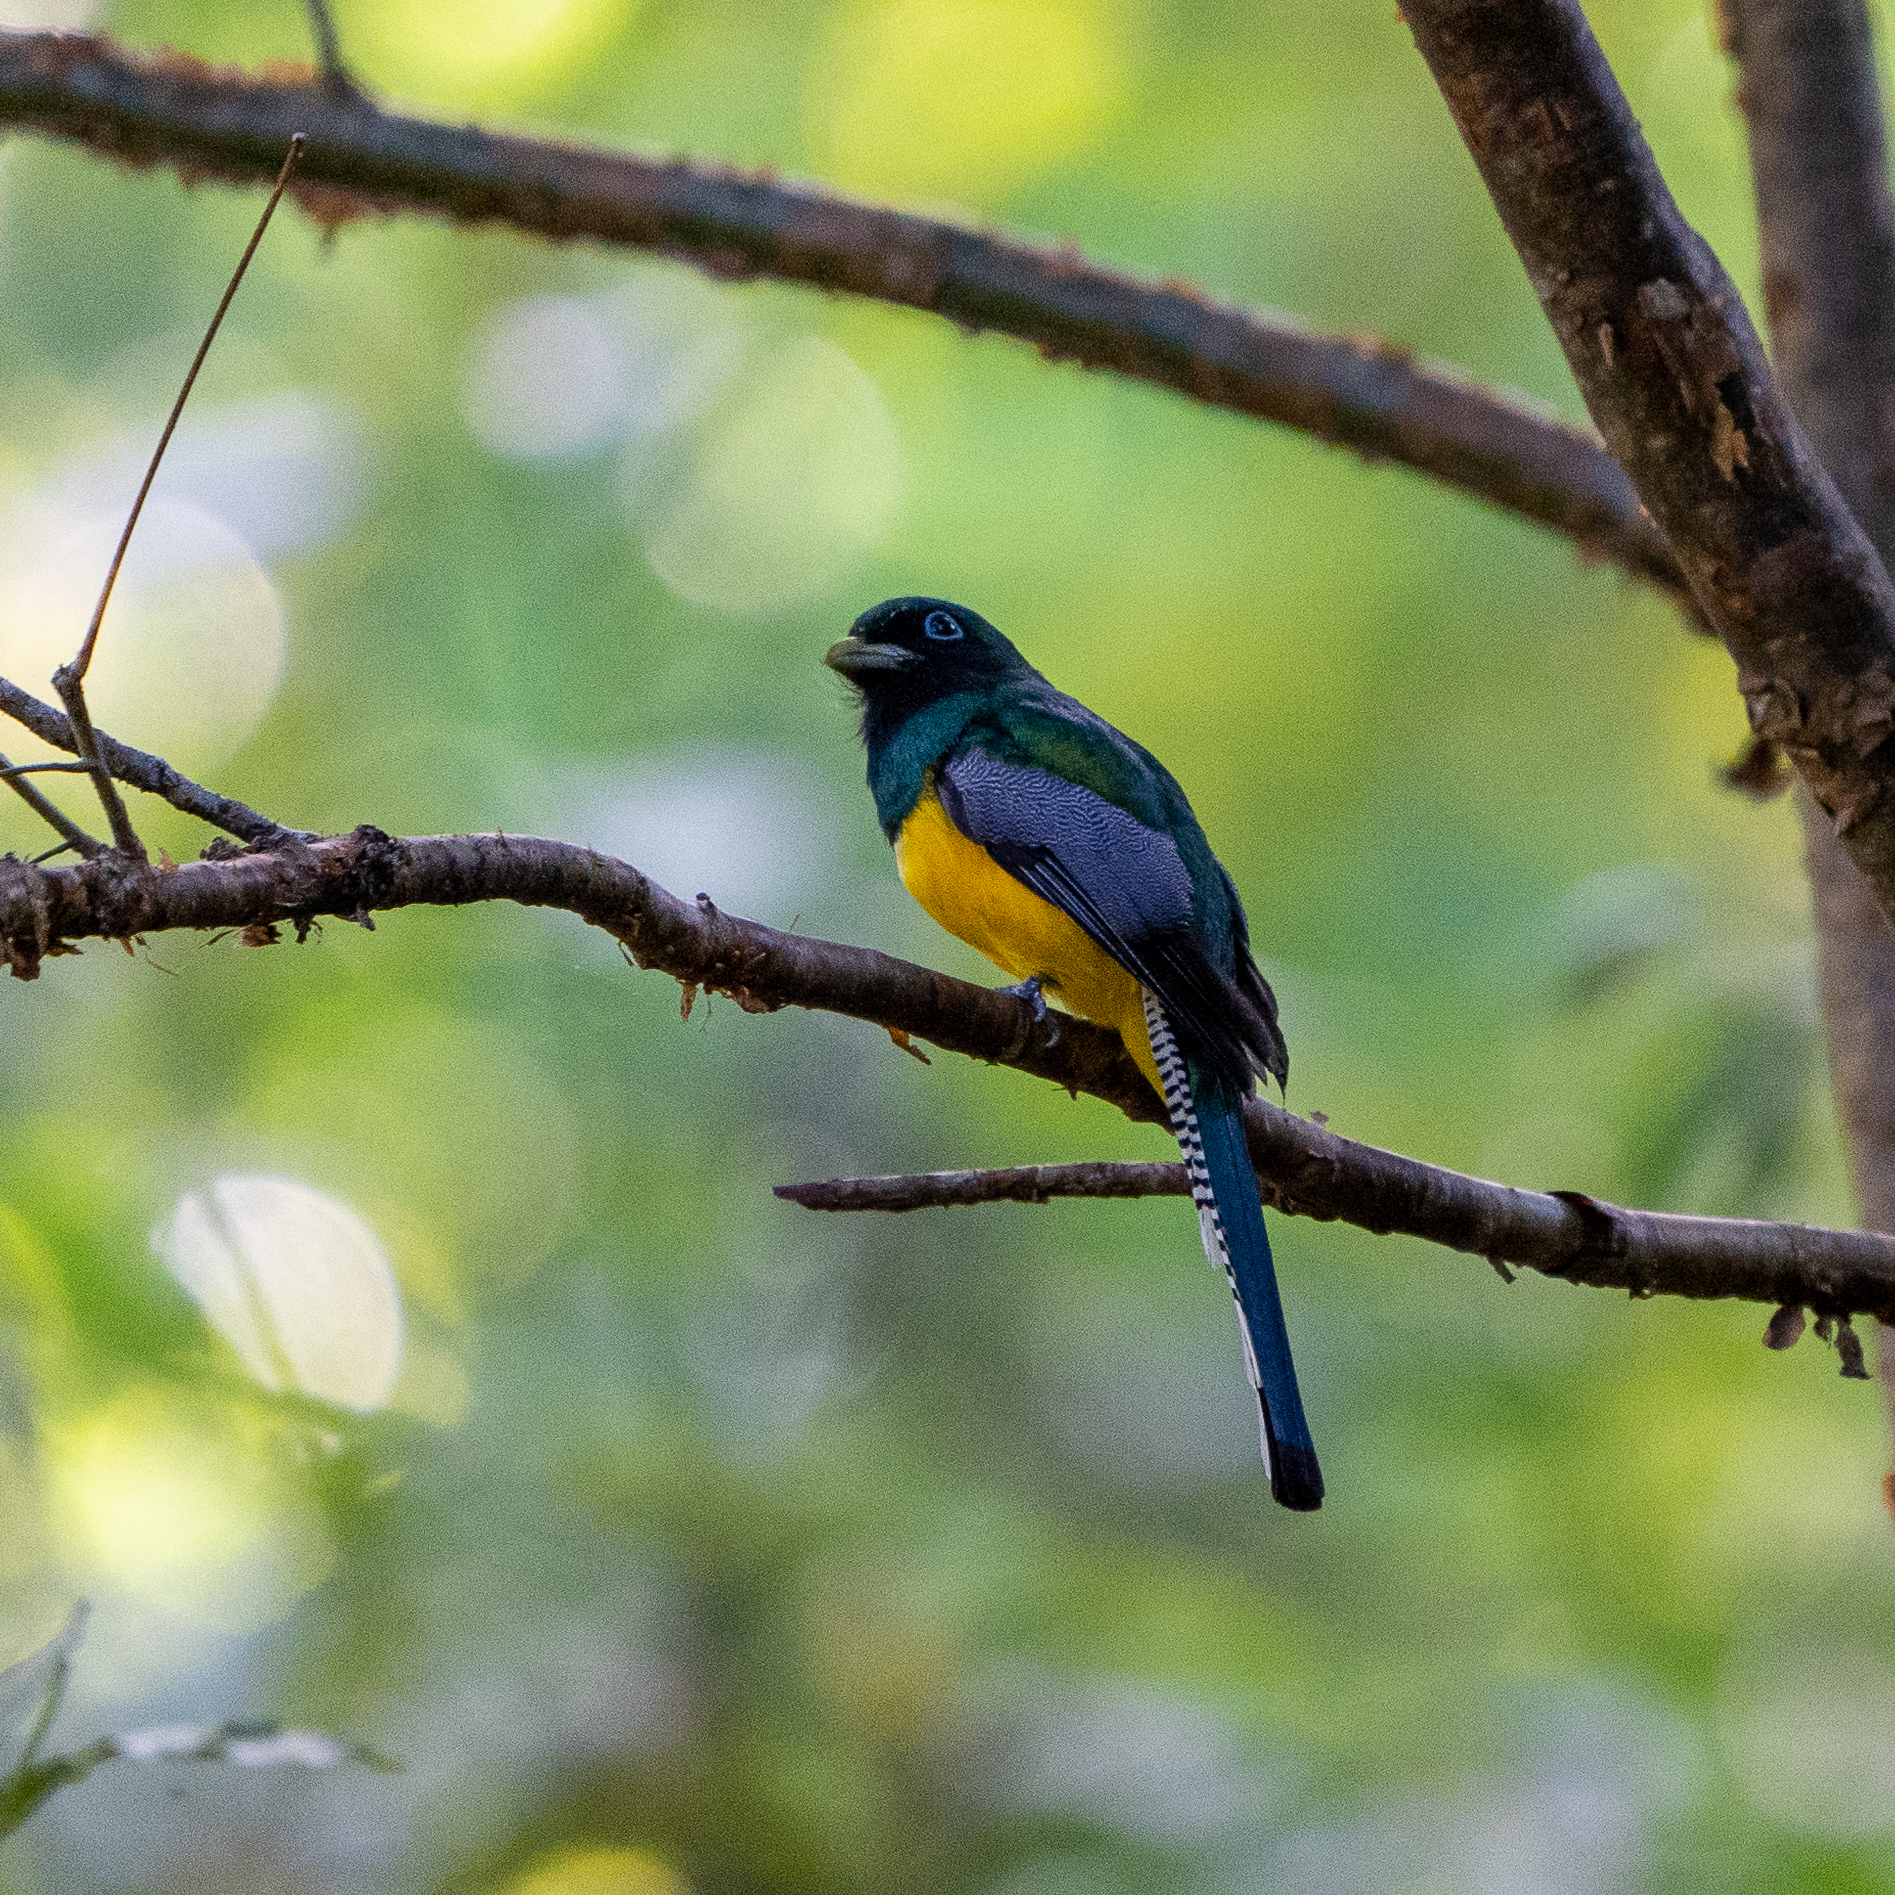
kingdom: Animalia
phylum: Chordata
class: Aves
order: Trogoniformes
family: Trogonidae
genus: Trogon
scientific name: Trogon rufus
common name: Black-throated trogon
